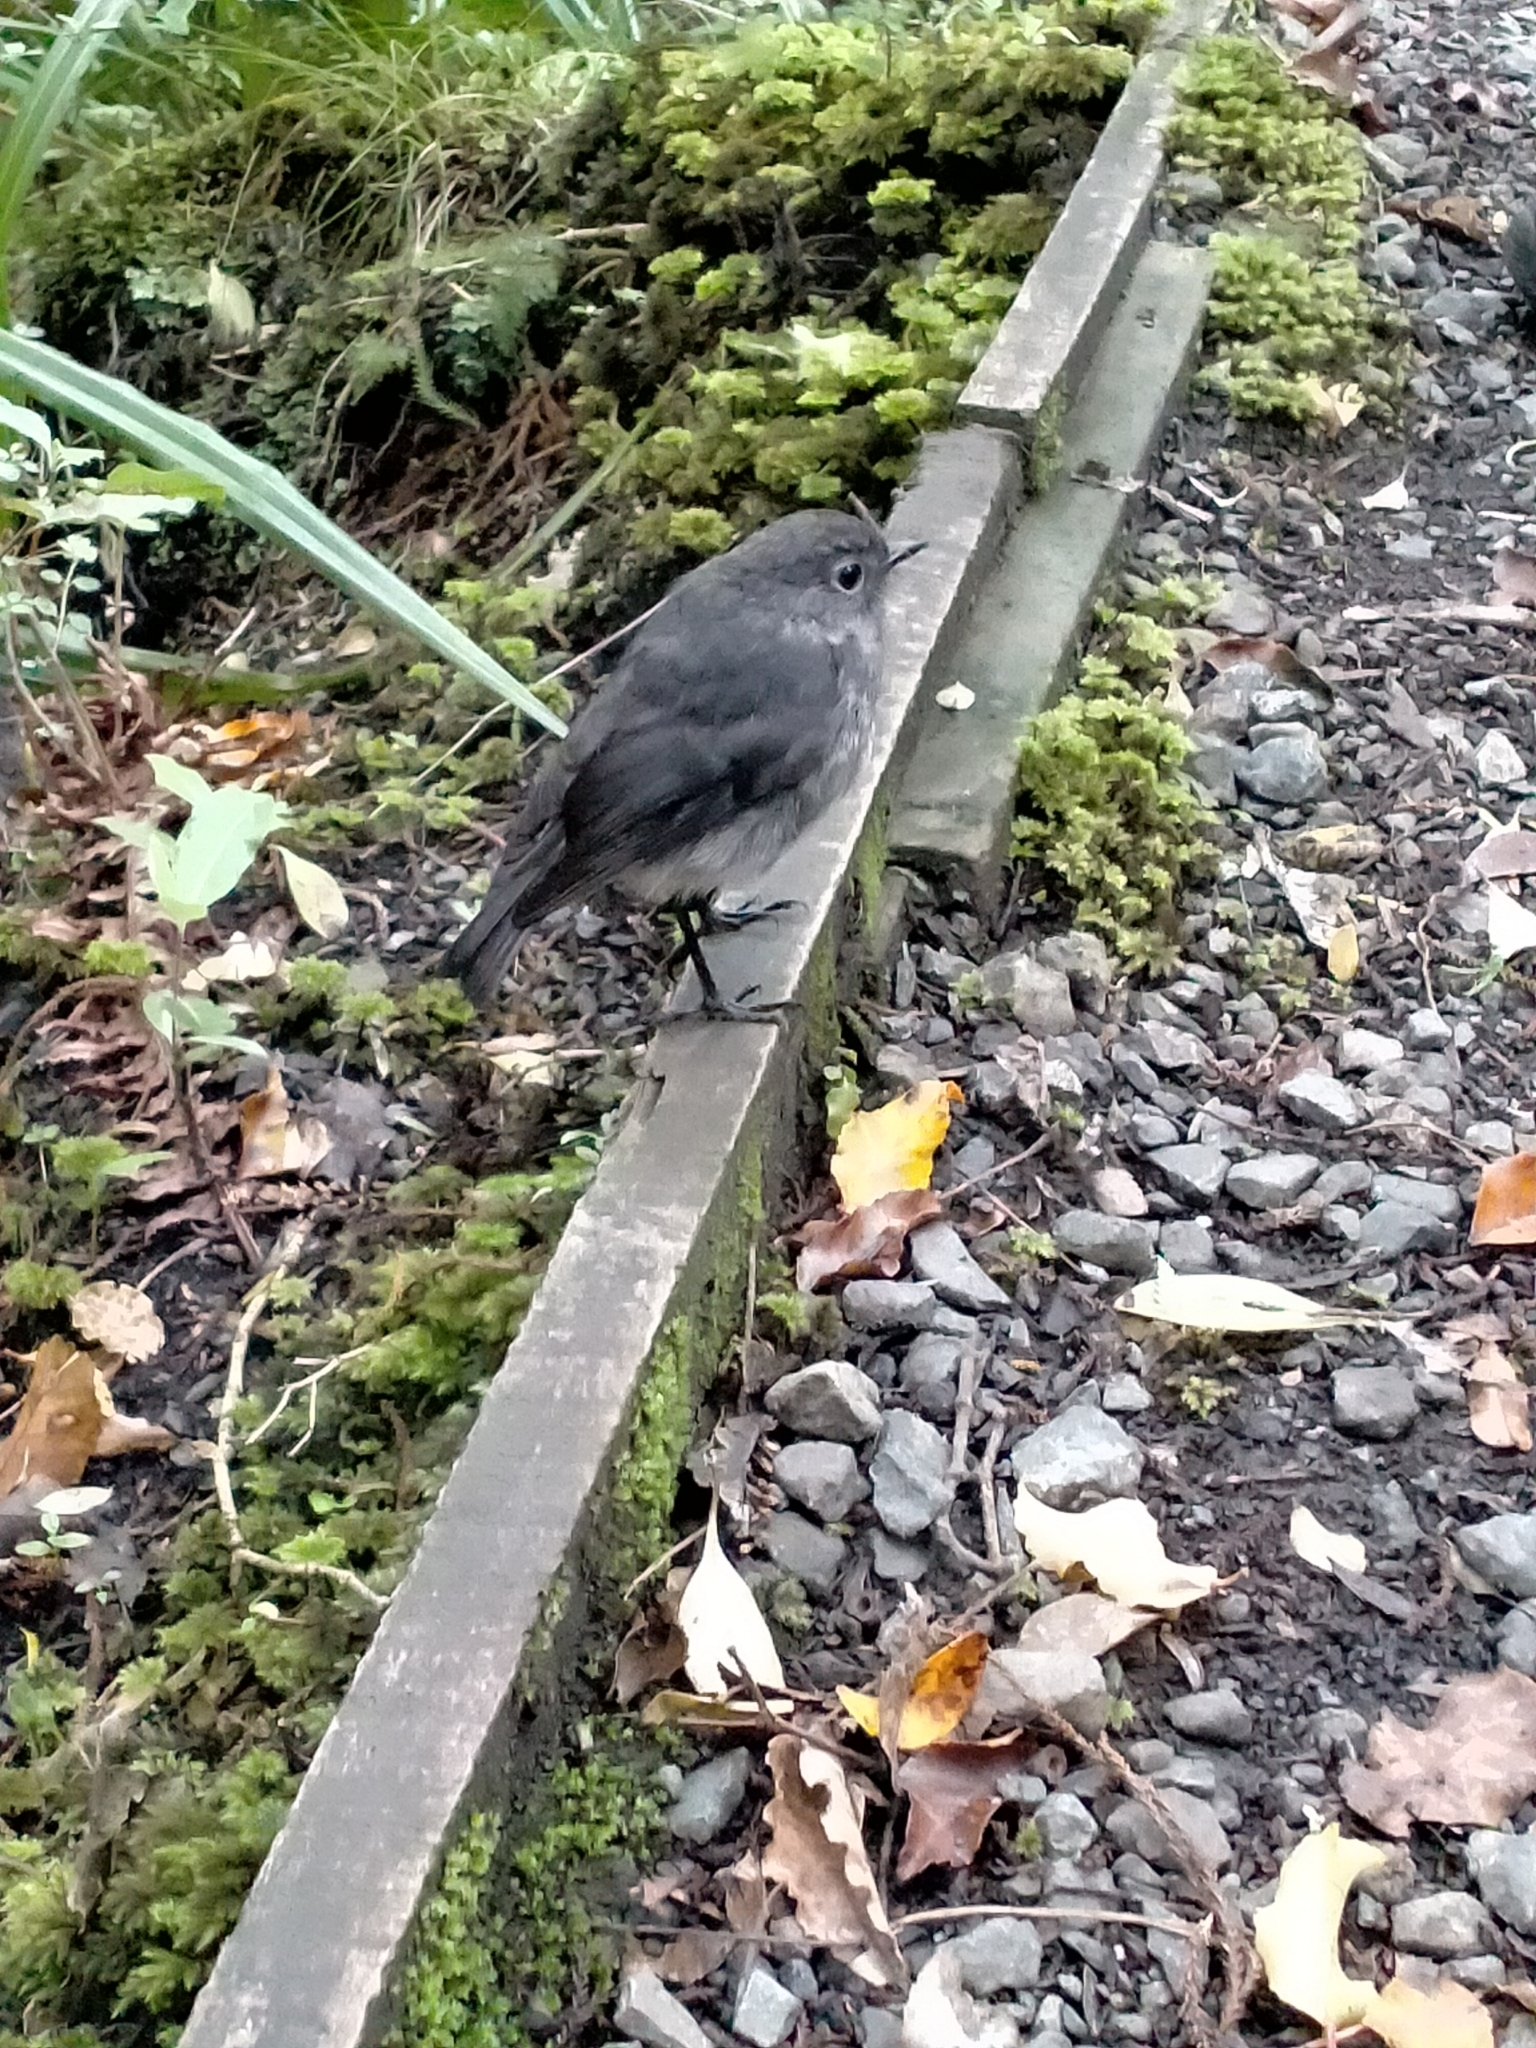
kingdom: Animalia
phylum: Chordata
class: Aves
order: Passeriformes
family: Petroicidae
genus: Petroica
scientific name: Petroica australis
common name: New zealand robin
